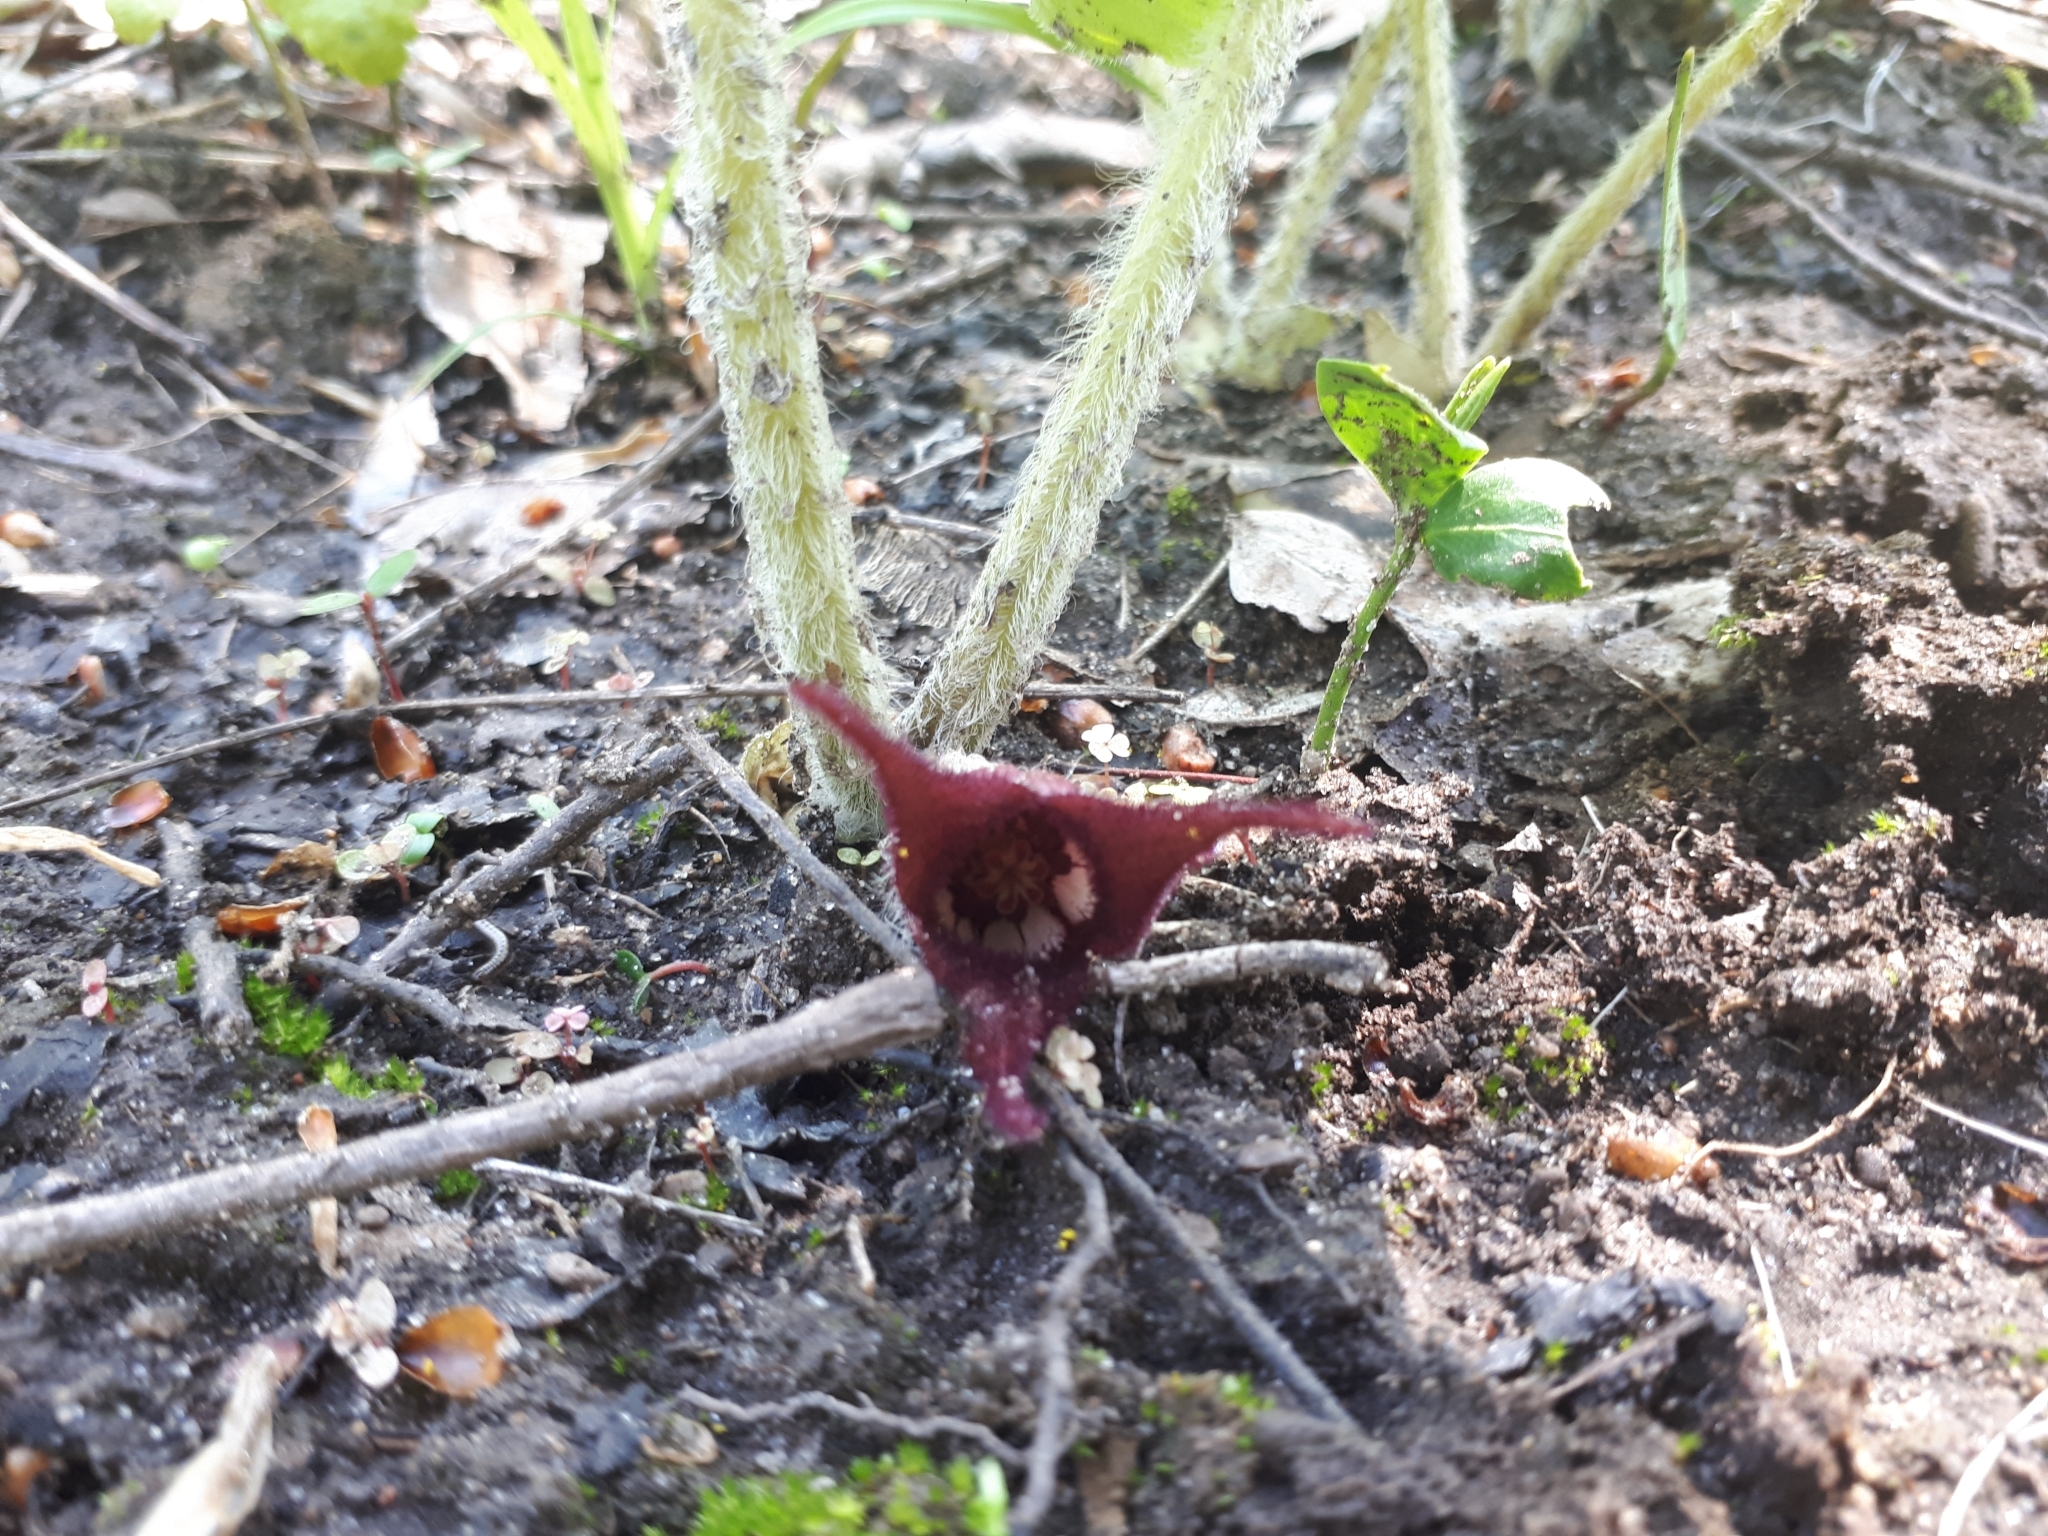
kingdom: Plantae
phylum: Tracheophyta
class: Magnoliopsida
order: Piperales
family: Aristolochiaceae
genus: Asarum
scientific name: Asarum canadense
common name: Wild ginger
